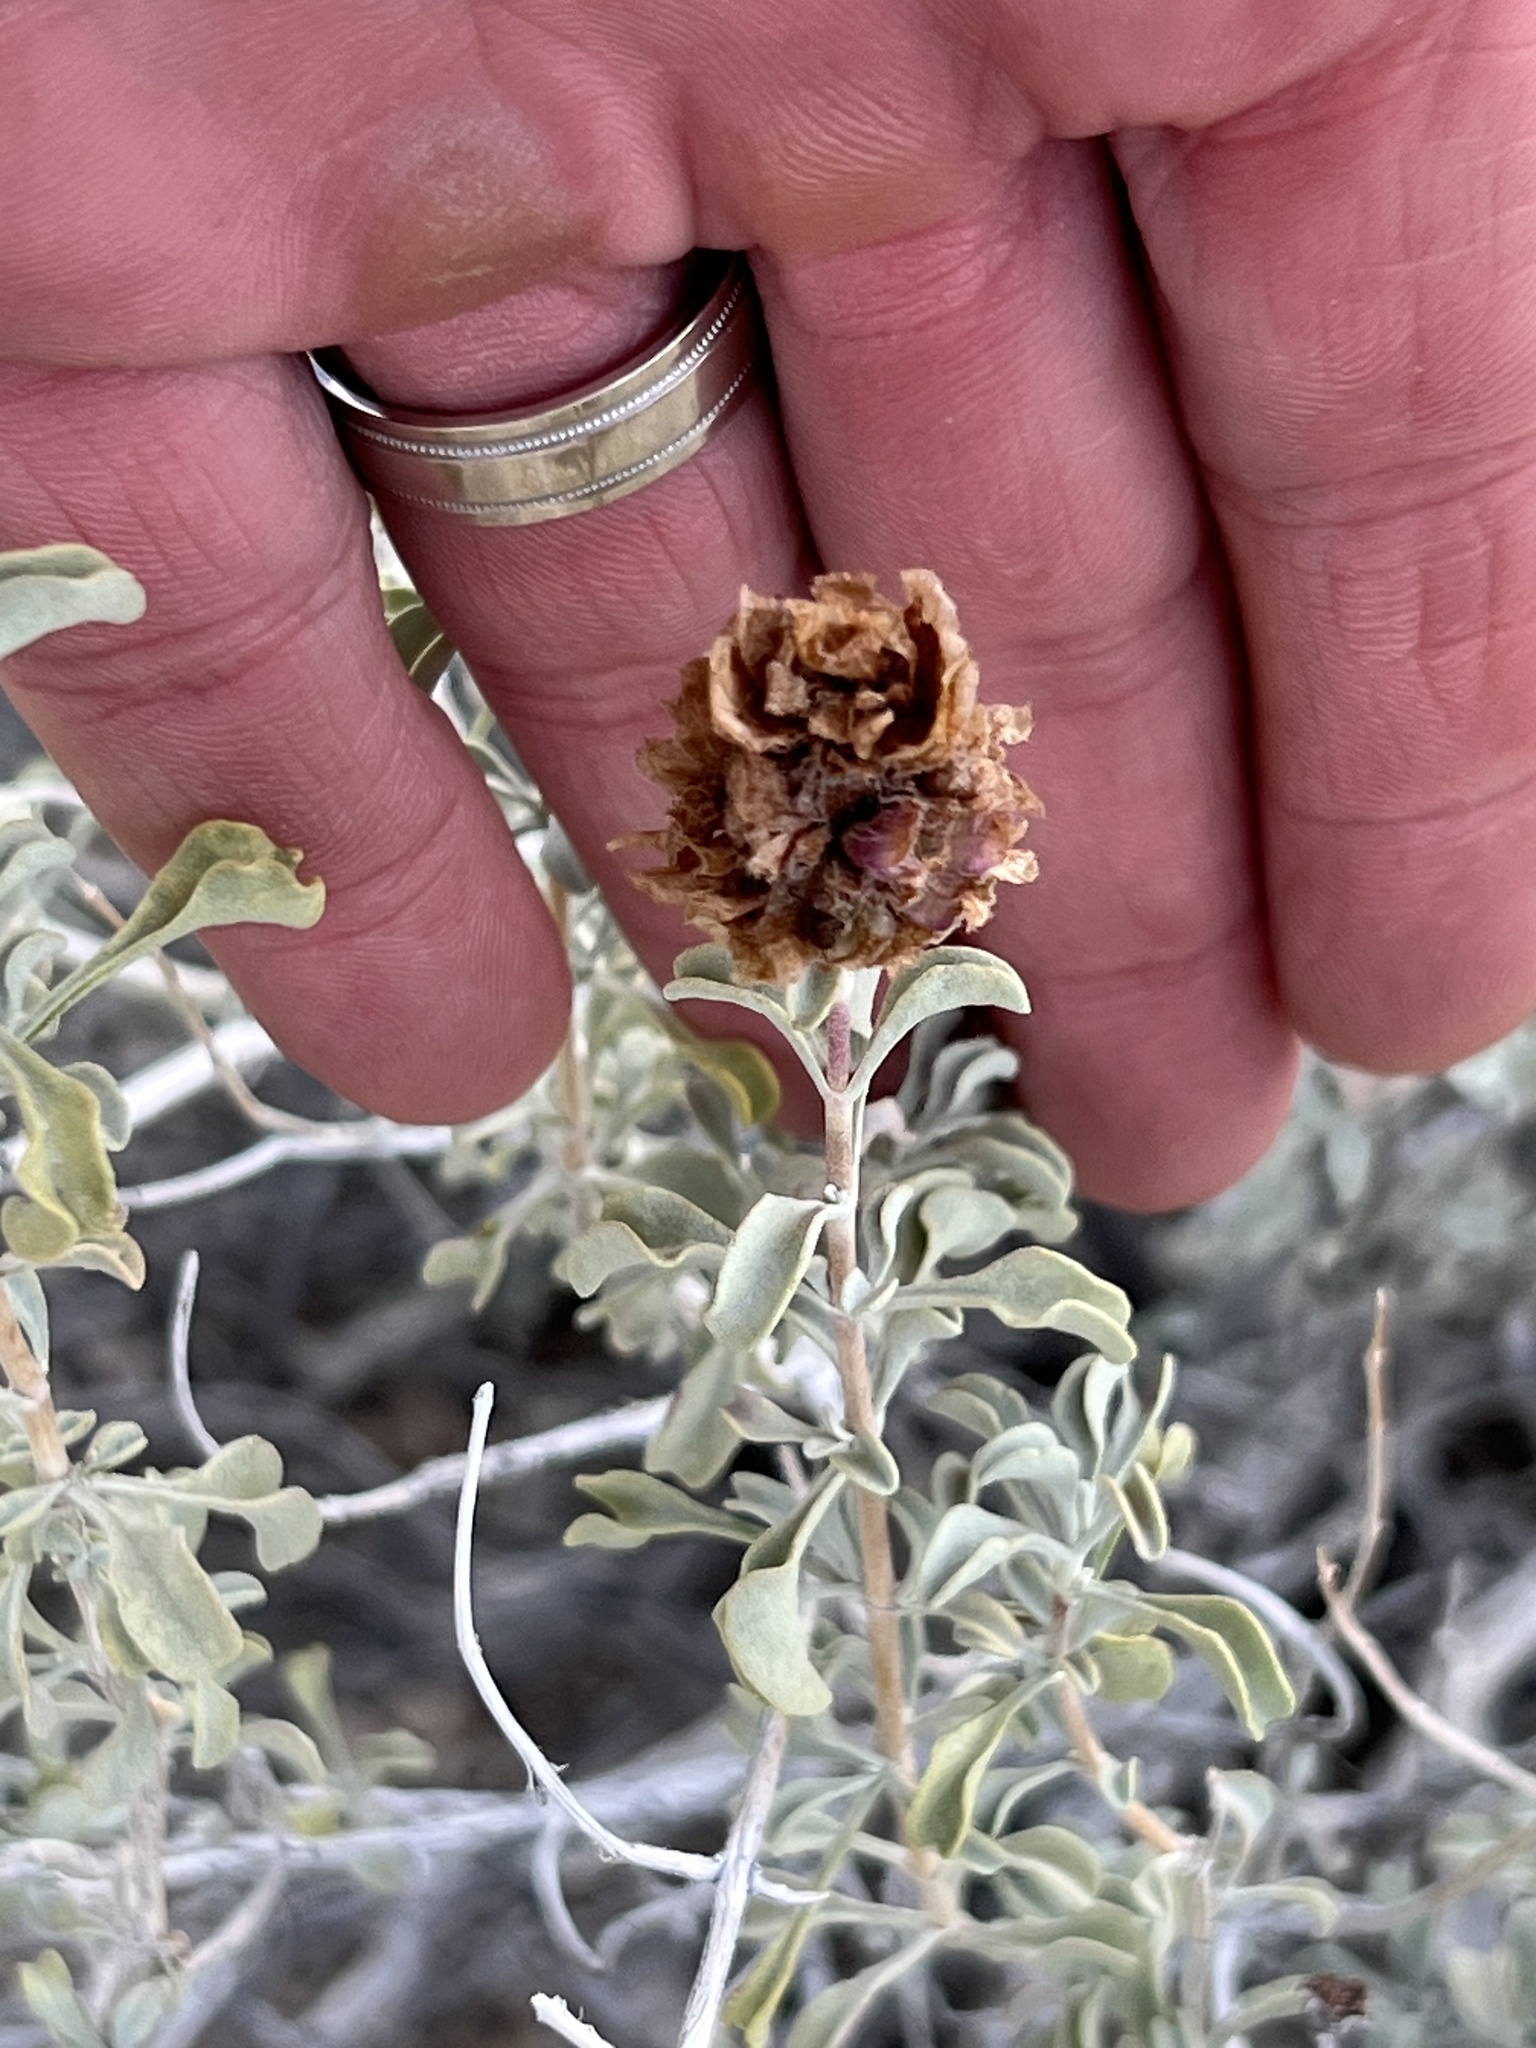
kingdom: Plantae
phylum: Tracheophyta
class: Magnoliopsida
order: Lamiales
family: Lamiaceae
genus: Salvia
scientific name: Salvia dorrii
